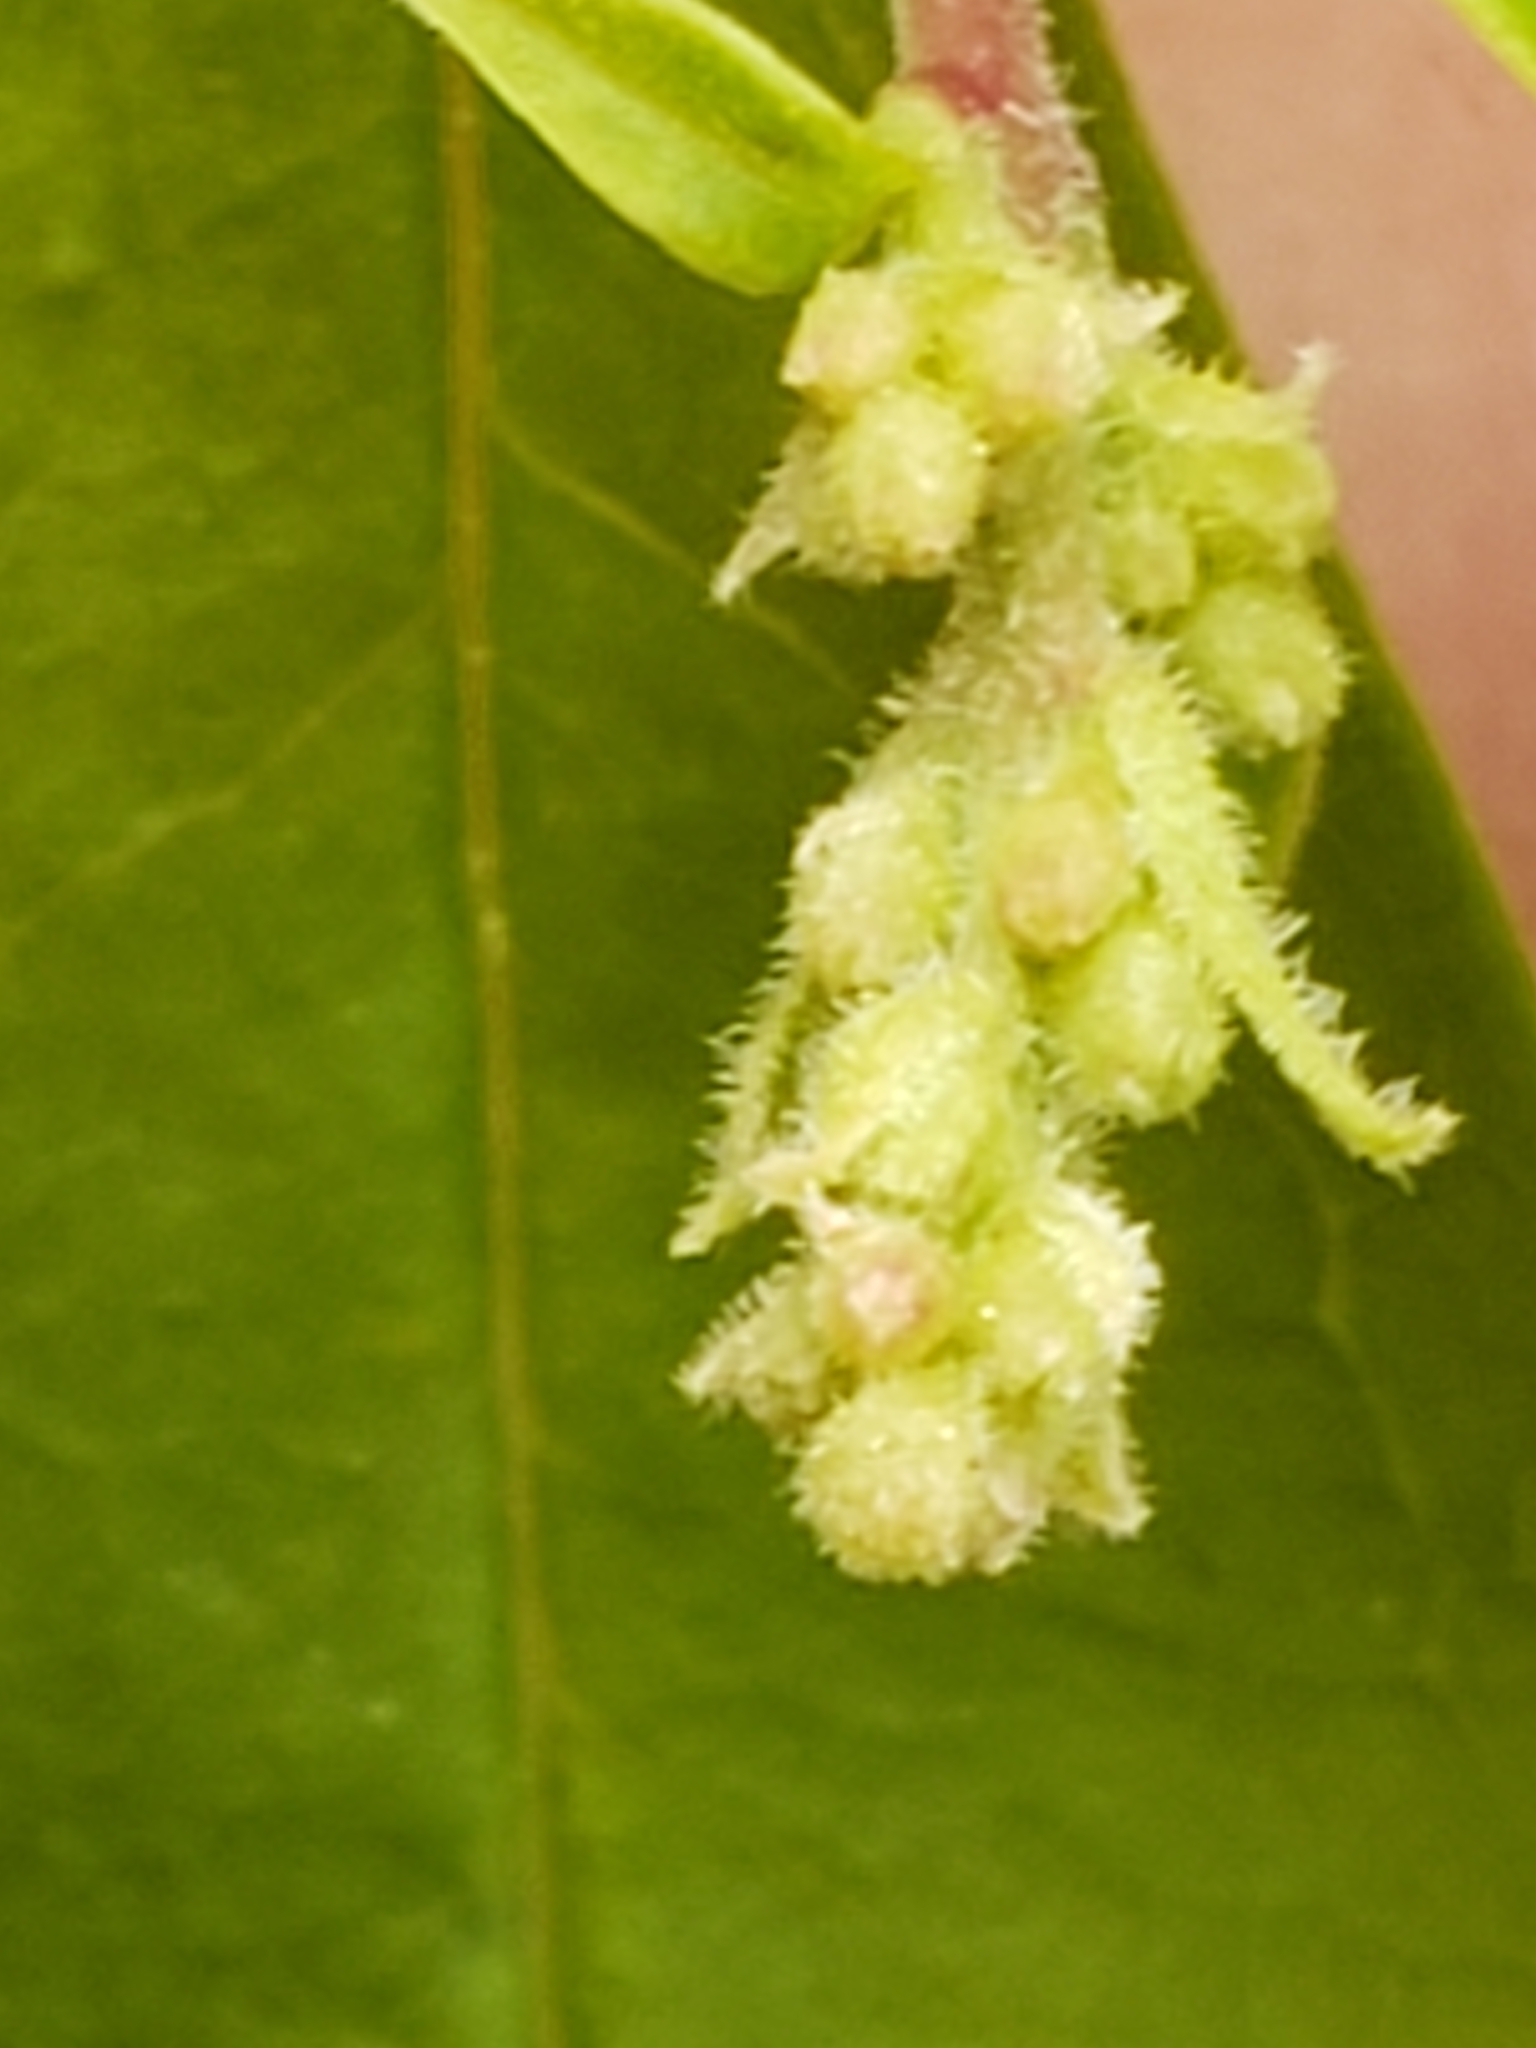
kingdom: Plantae
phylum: Tracheophyta
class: Magnoliopsida
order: Lamiales
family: Oleaceae
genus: Ligustrum
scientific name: Ligustrum obtusifolium
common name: Border privet
